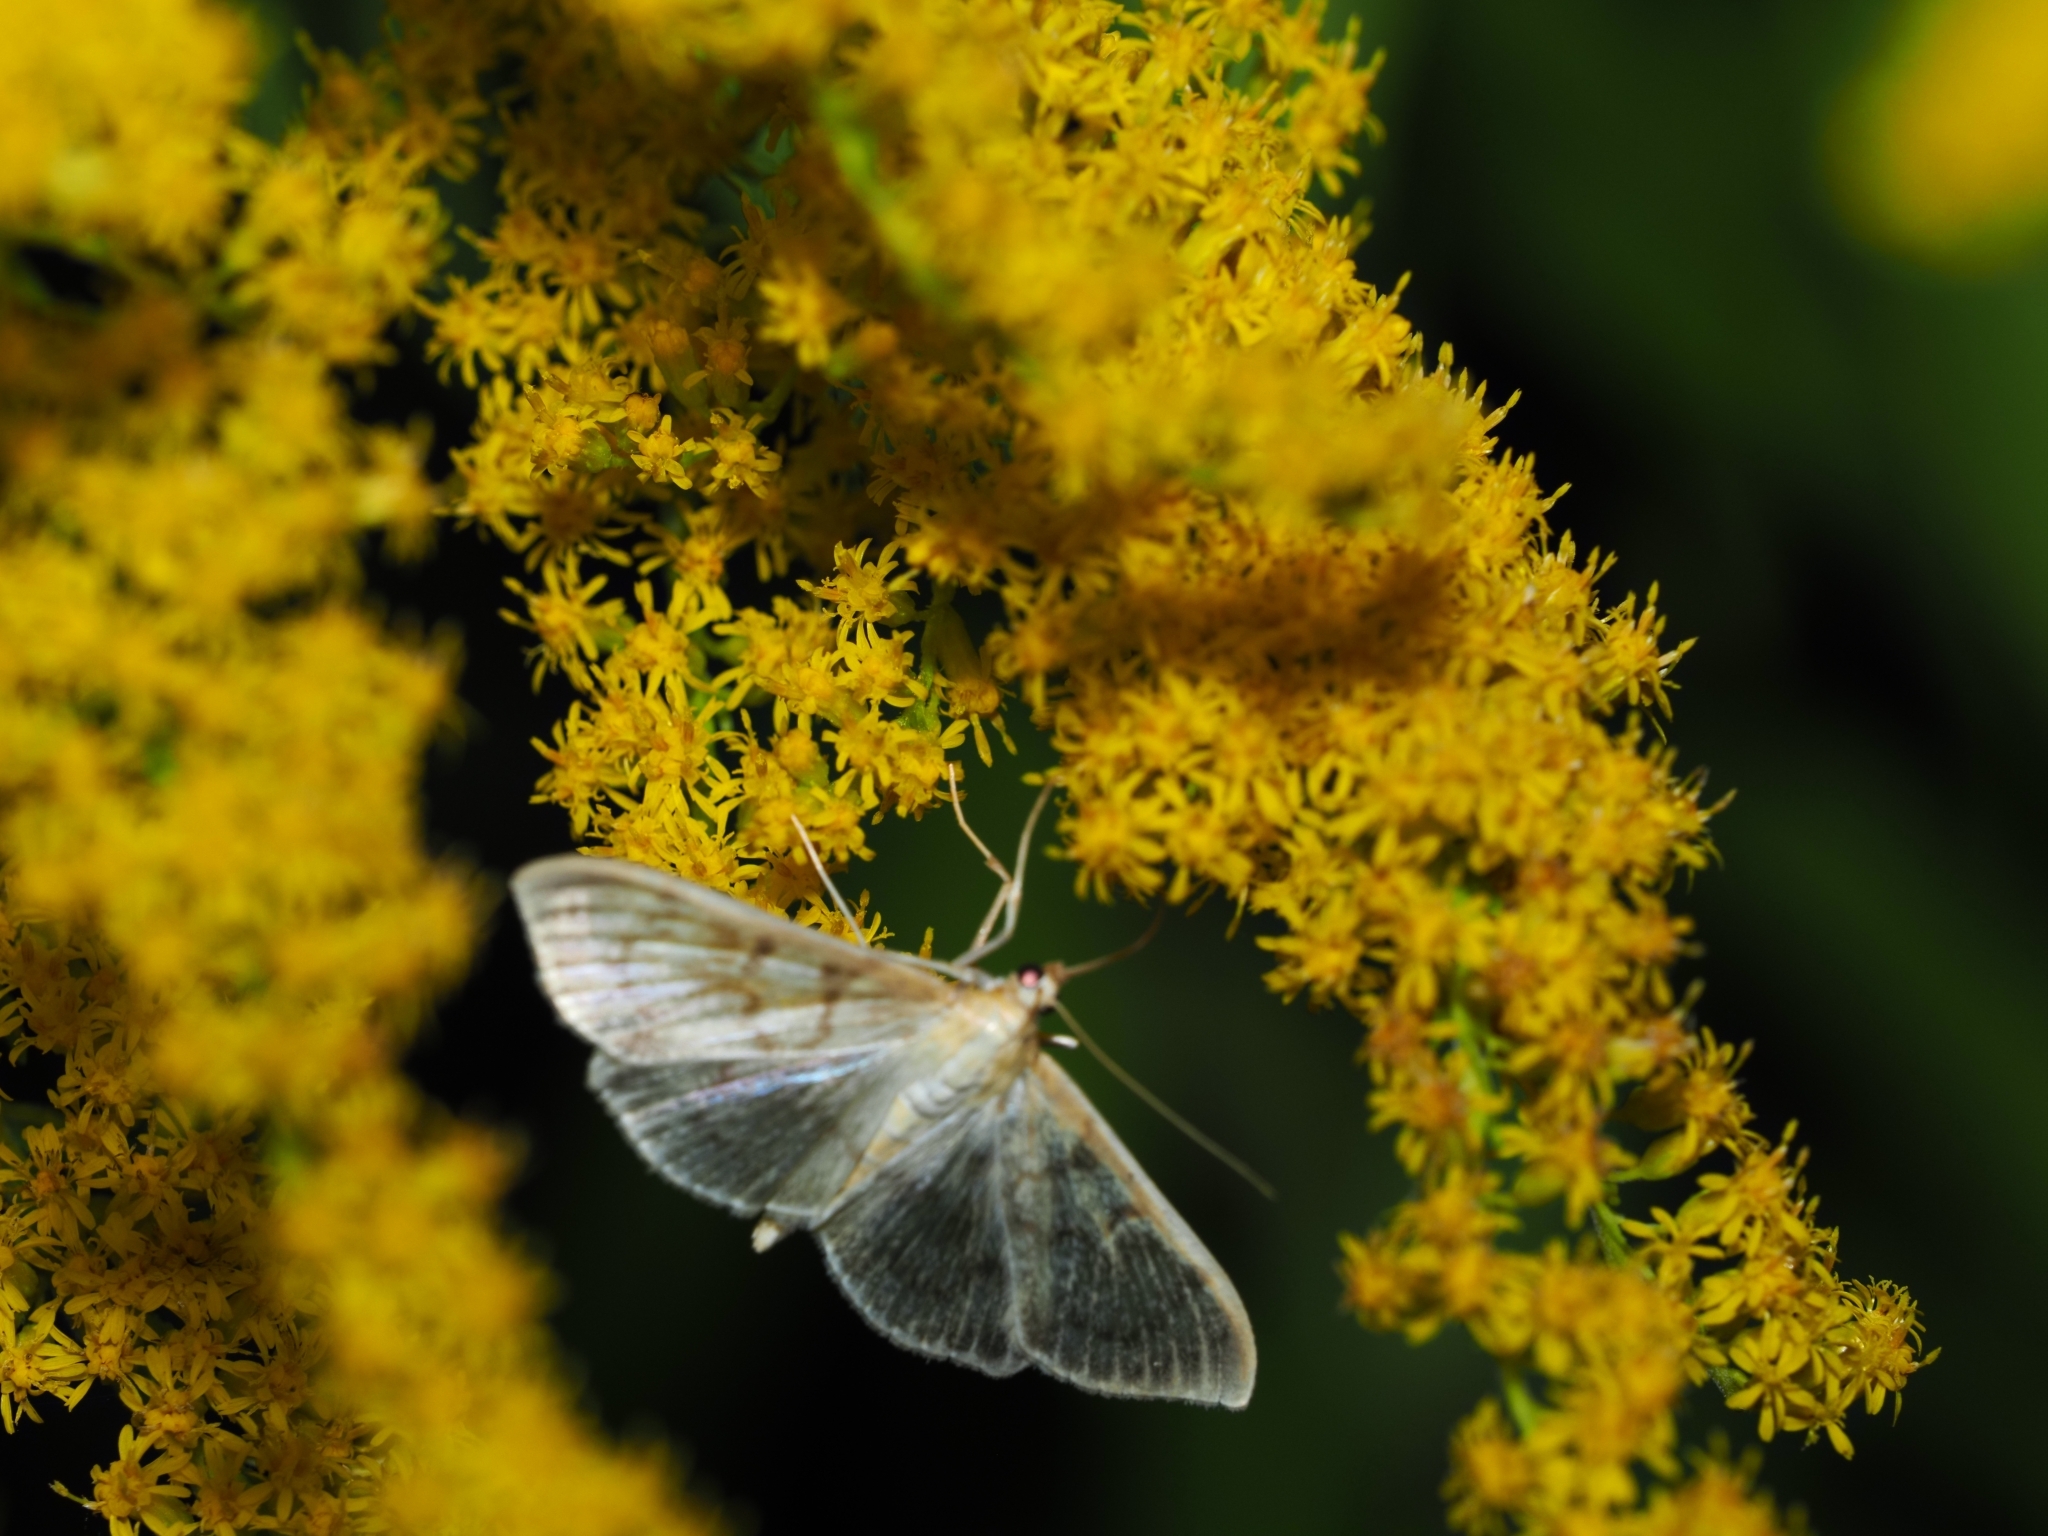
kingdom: Animalia
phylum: Arthropoda
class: Insecta
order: Lepidoptera
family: Crambidae
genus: Patania
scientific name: Patania ruralis
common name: Mother of pearl
